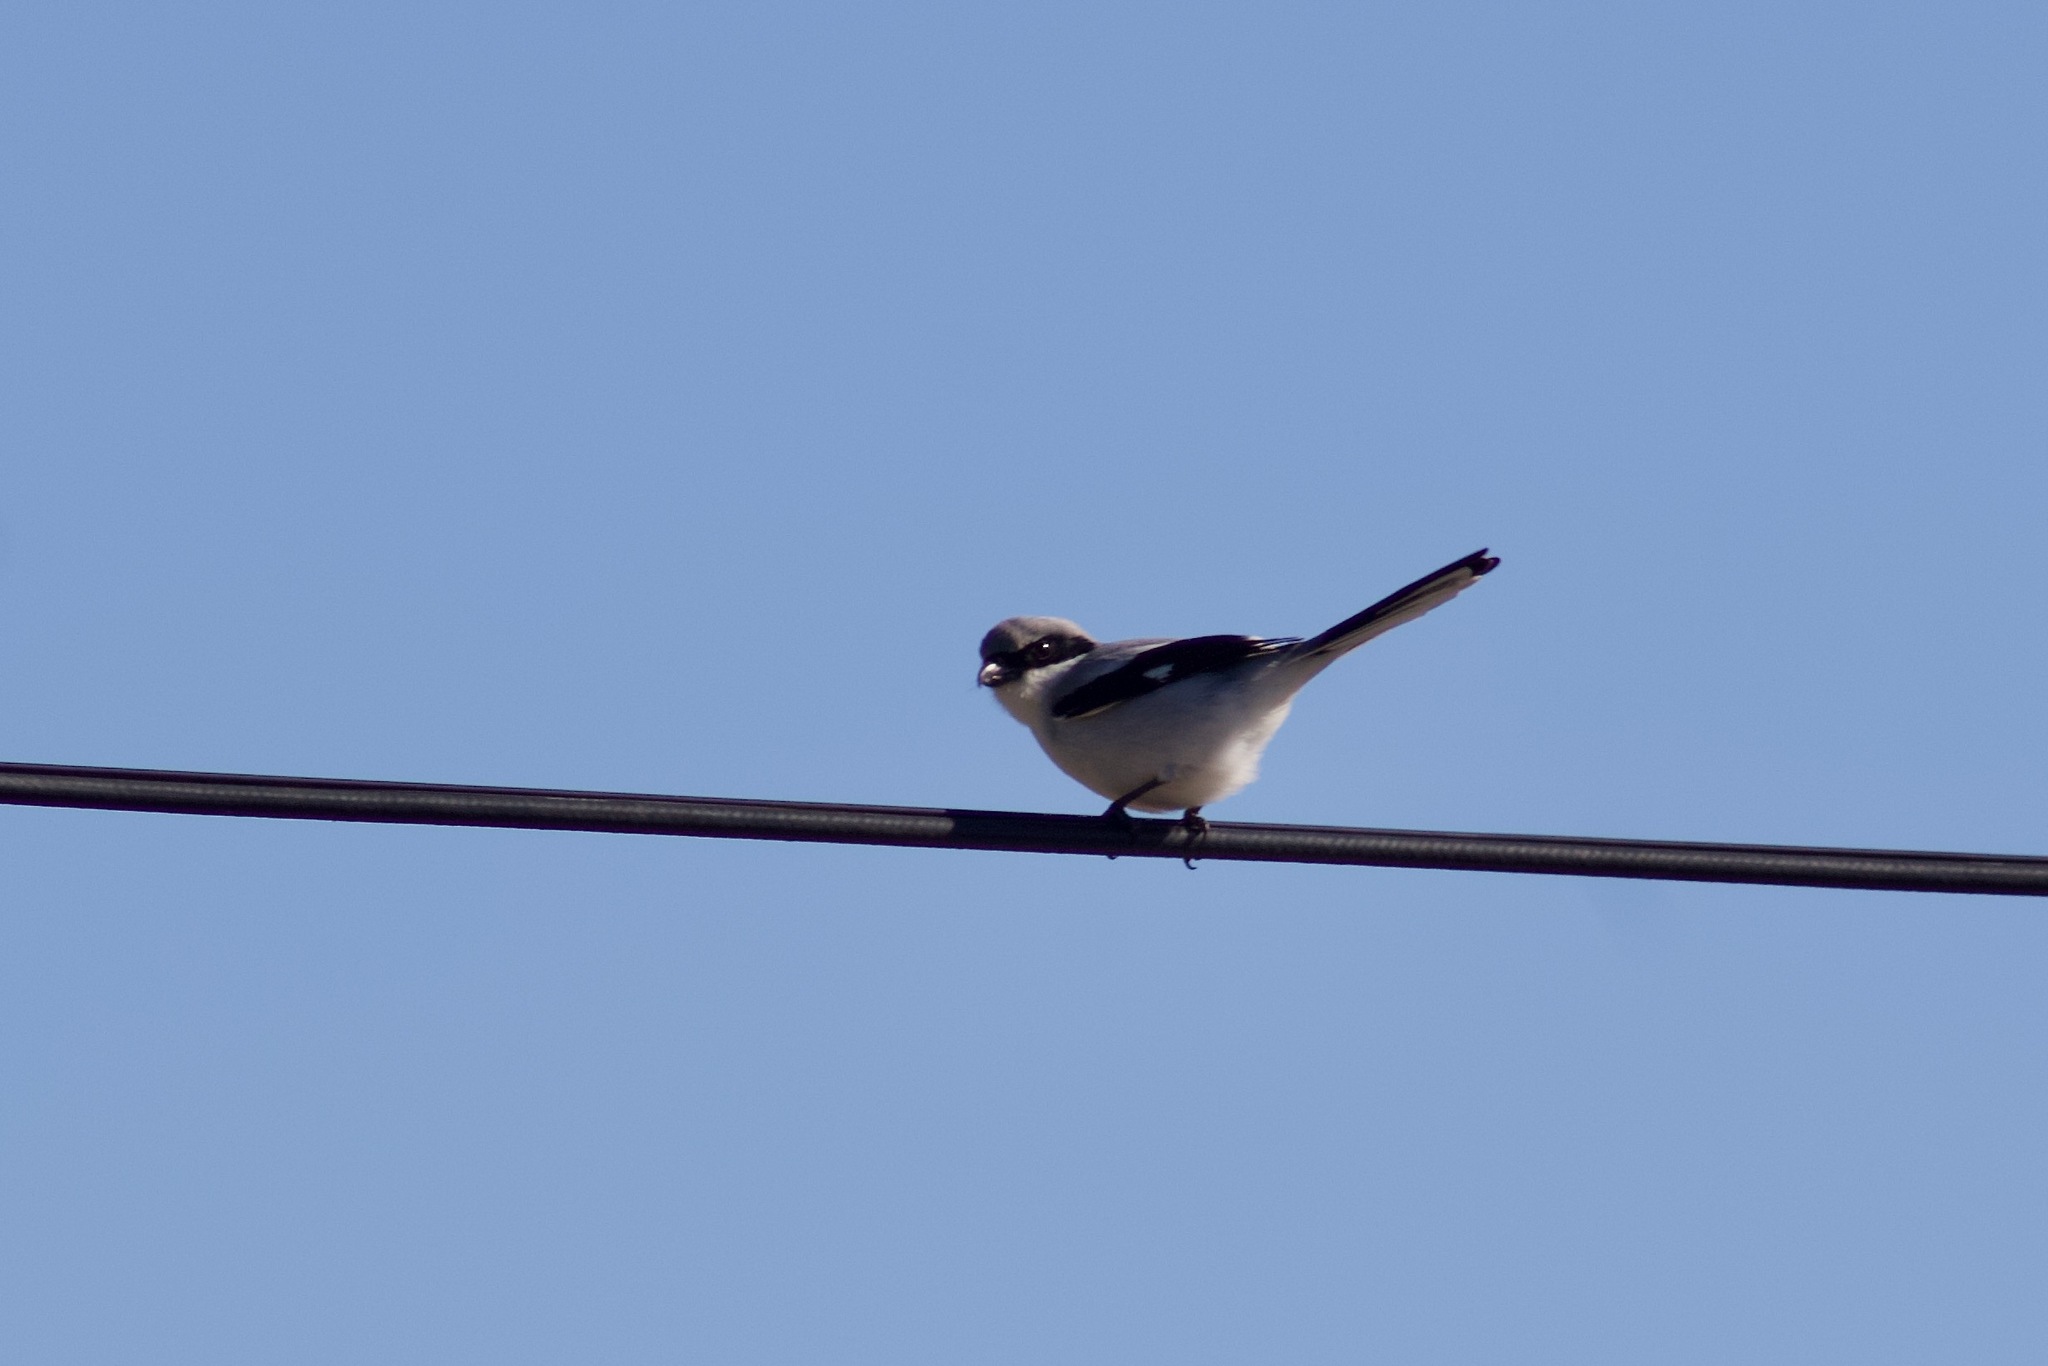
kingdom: Animalia
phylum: Chordata
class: Aves
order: Passeriformes
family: Laniidae
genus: Lanius
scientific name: Lanius ludovicianus
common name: Loggerhead shrike
